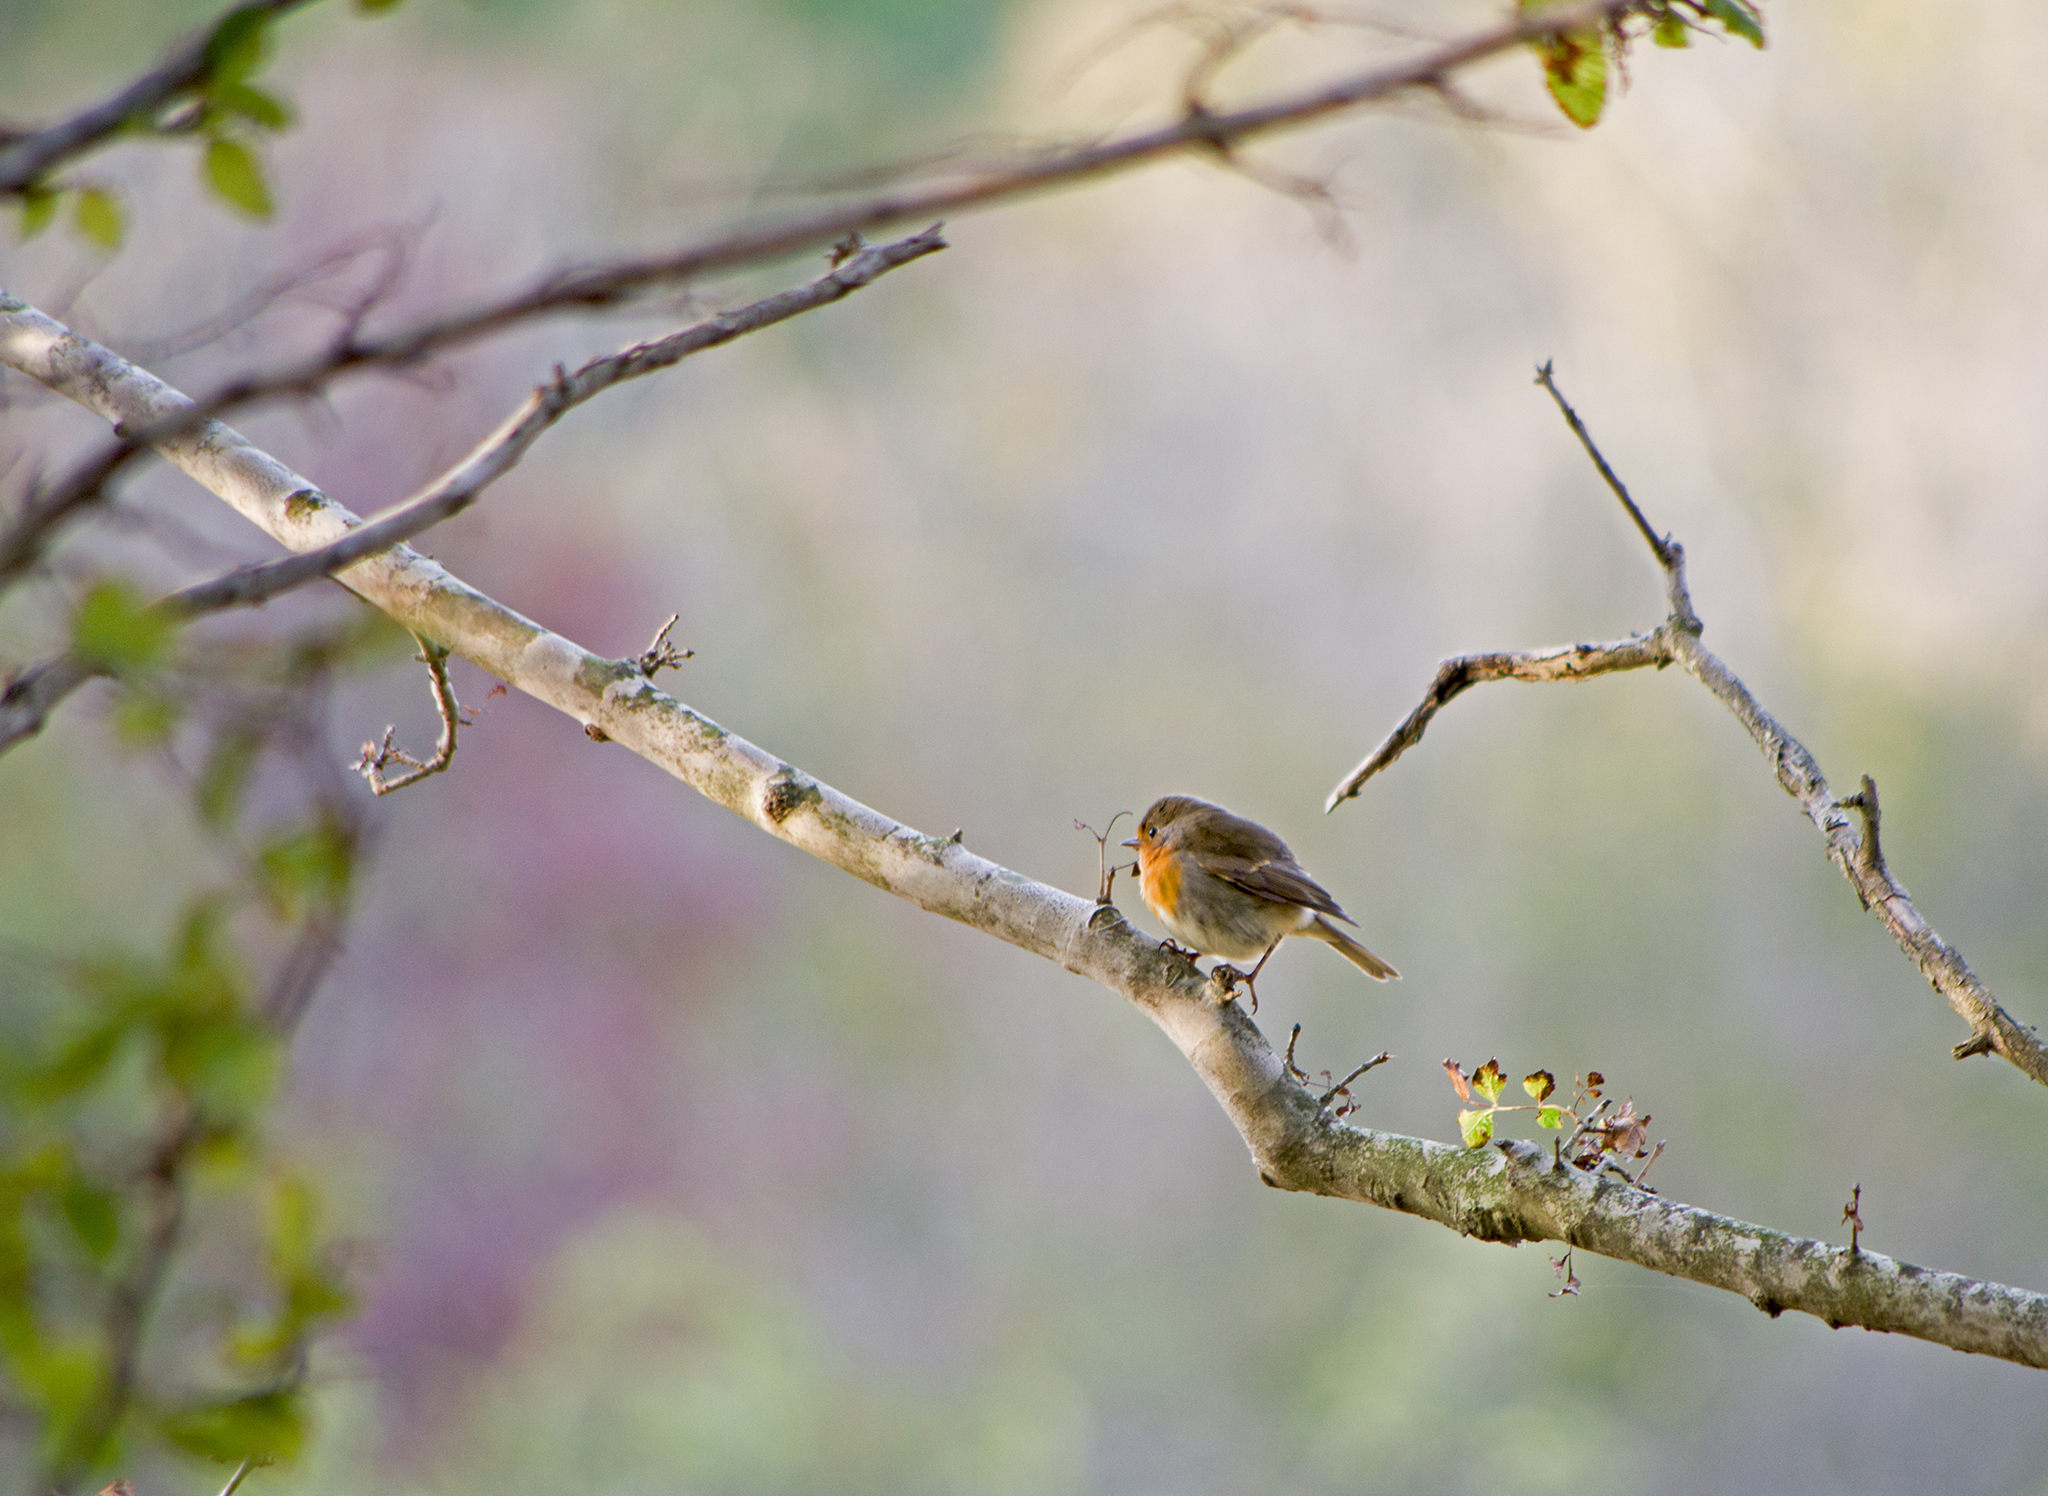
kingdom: Animalia
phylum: Chordata
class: Aves
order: Passeriformes
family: Muscicapidae
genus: Erithacus
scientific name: Erithacus rubecula
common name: European robin
